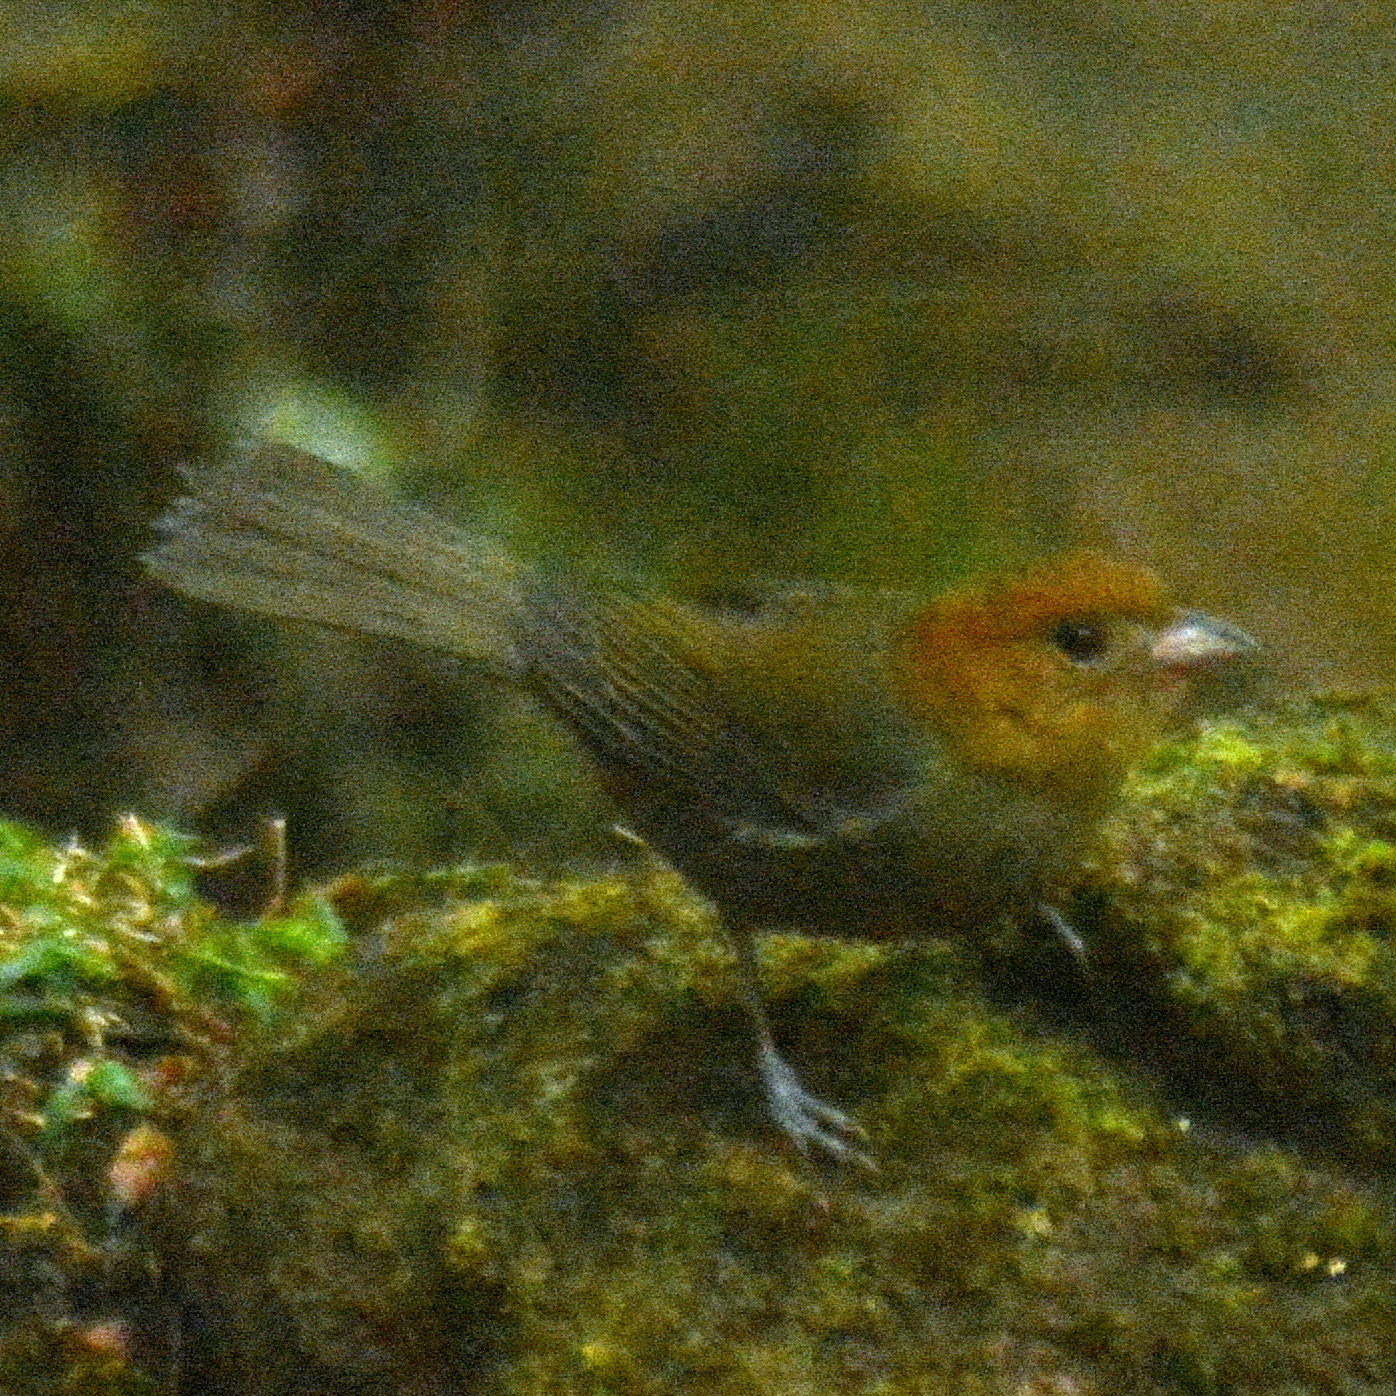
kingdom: Animalia
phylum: Chordata
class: Aves
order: Passeriformes
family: Thraupidae
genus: Thlypopsis
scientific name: Thlypopsis pyrrhocoma
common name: Chestnut-headed tanager
